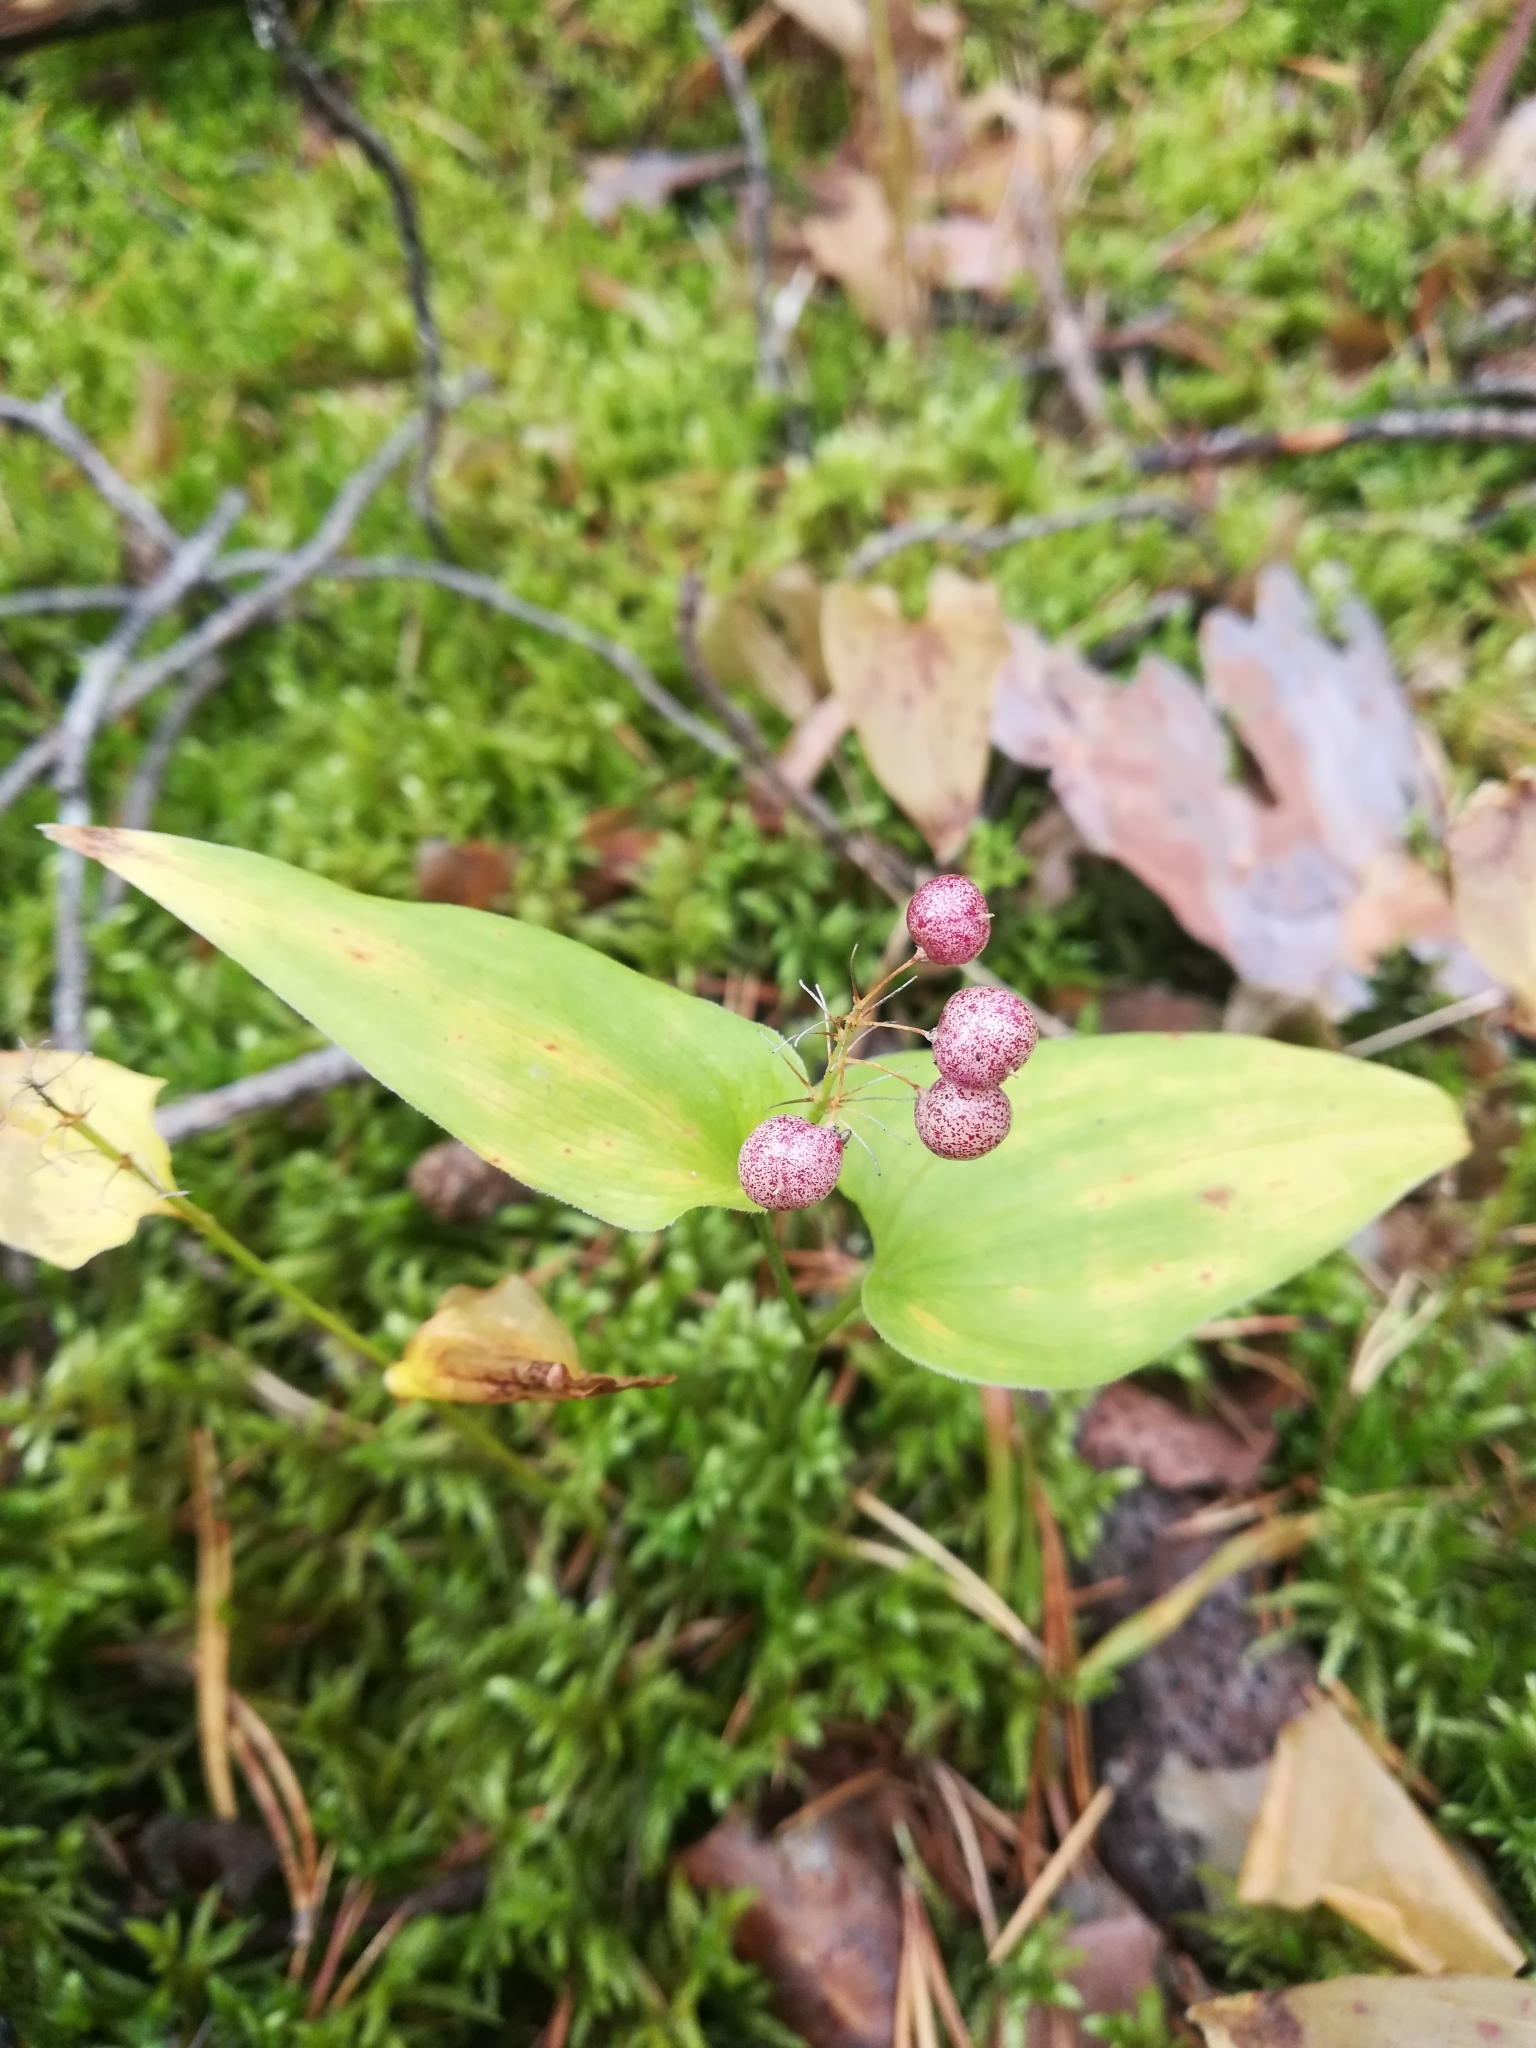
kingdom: Plantae
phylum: Tracheophyta
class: Liliopsida
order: Asparagales
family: Asparagaceae
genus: Maianthemum
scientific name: Maianthemum bifolium
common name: May lily
